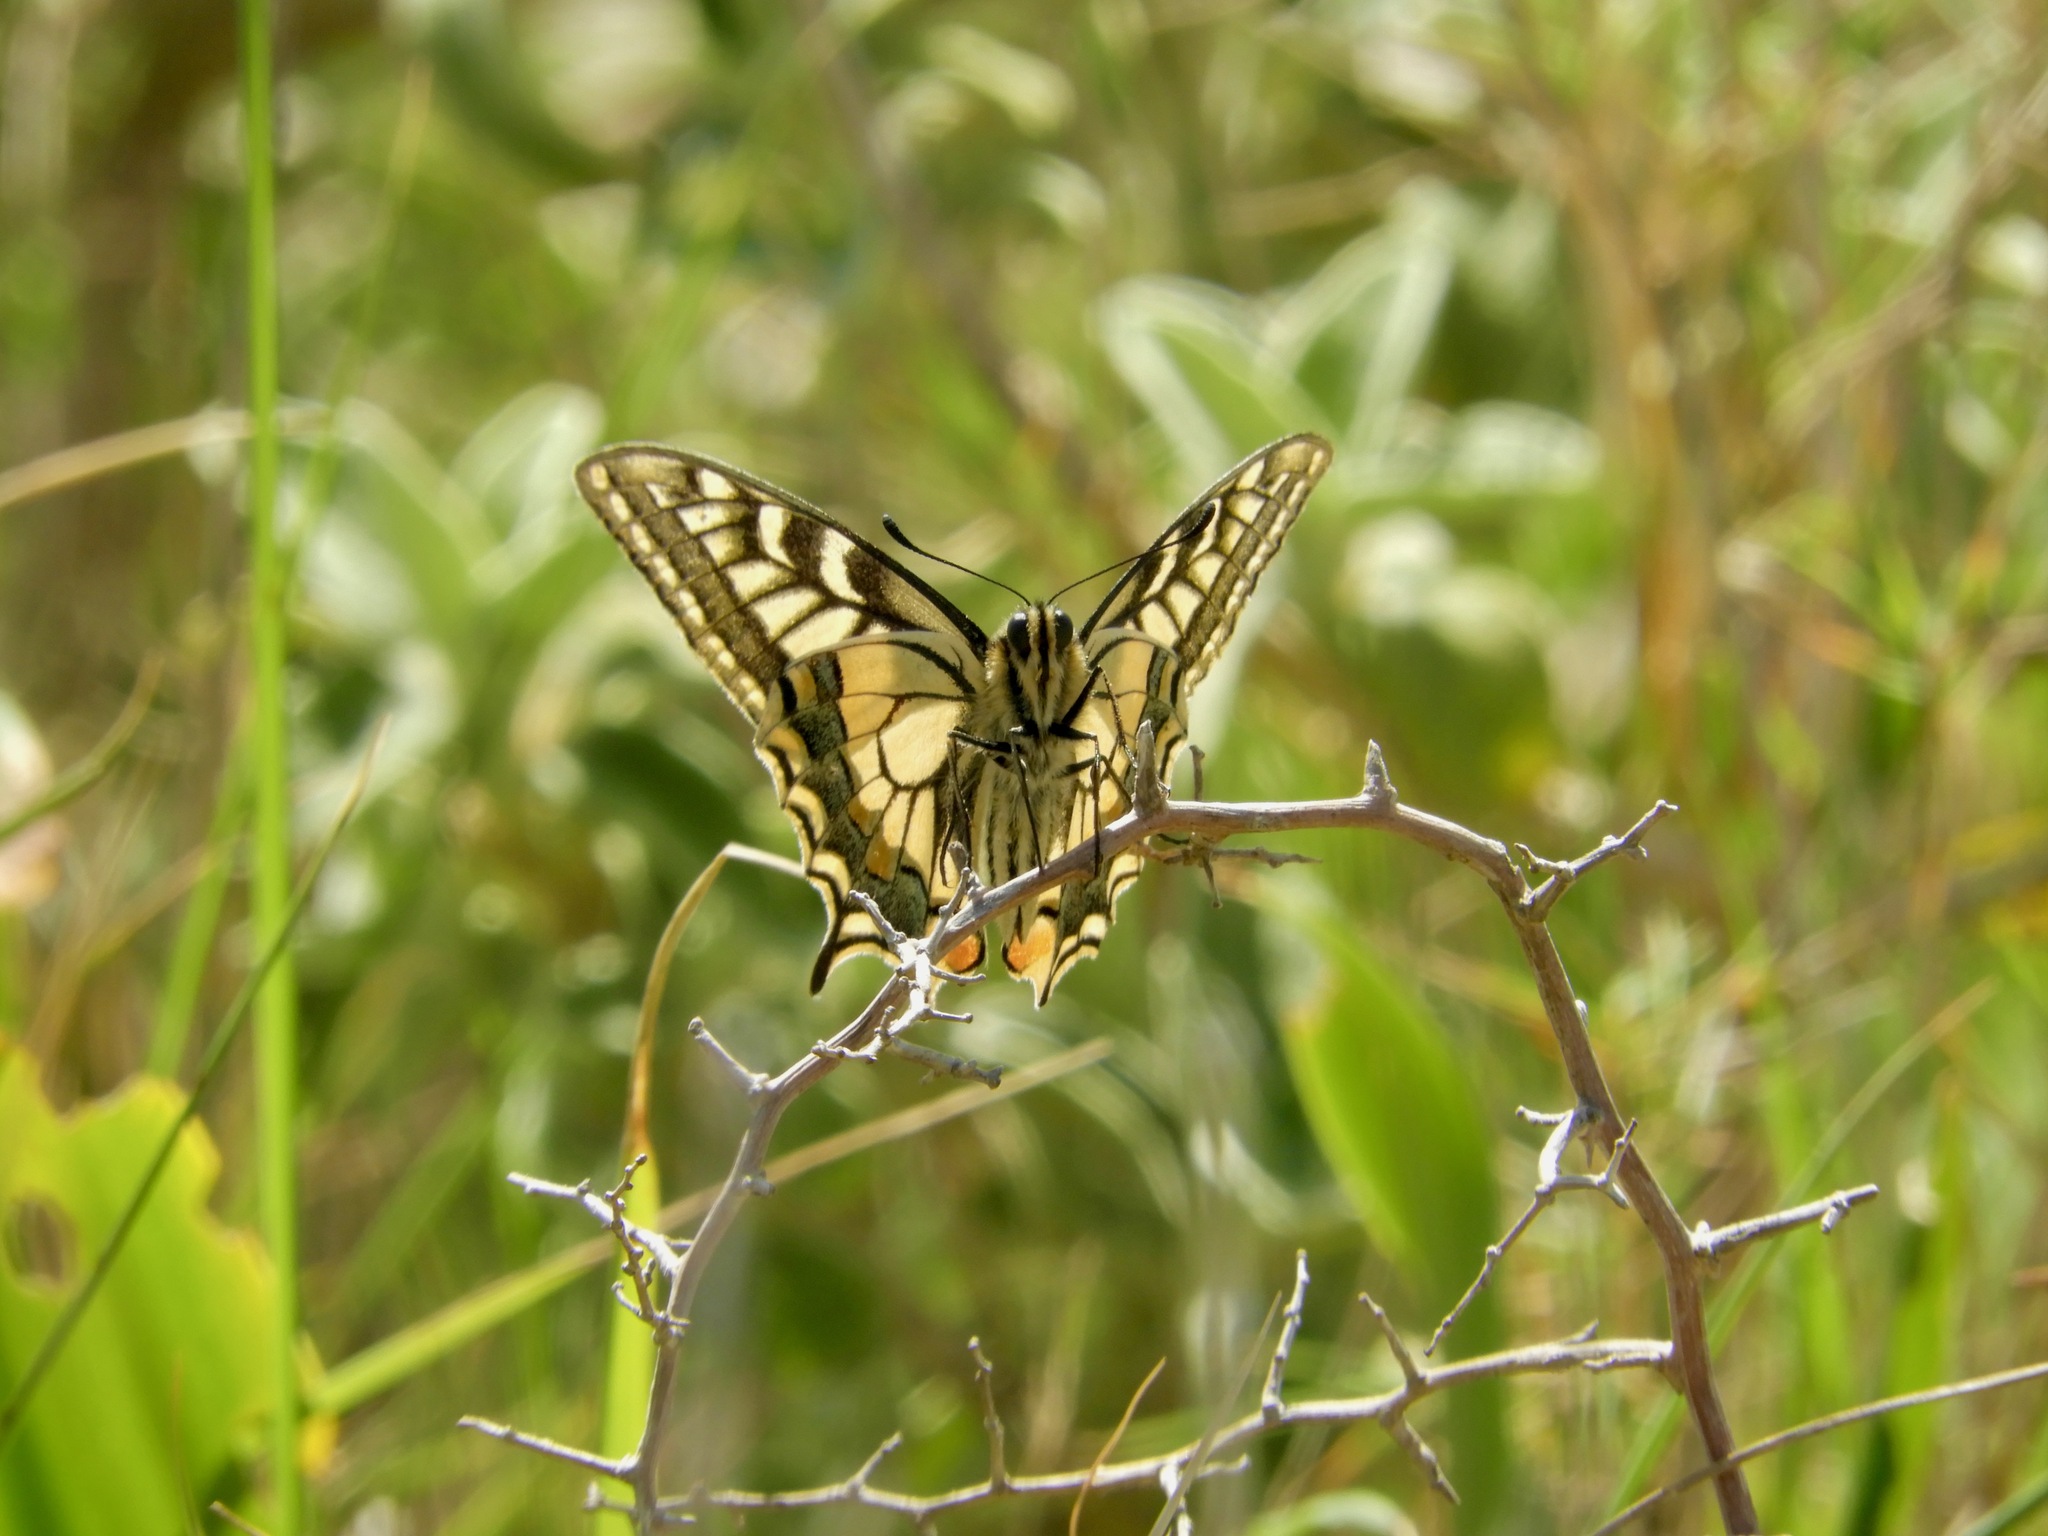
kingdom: Animalia
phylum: Arthropoda
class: Insecta
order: Lepidoptera
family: Papilionidae
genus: Papilio
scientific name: Papilio machaon
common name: Swallowtail
